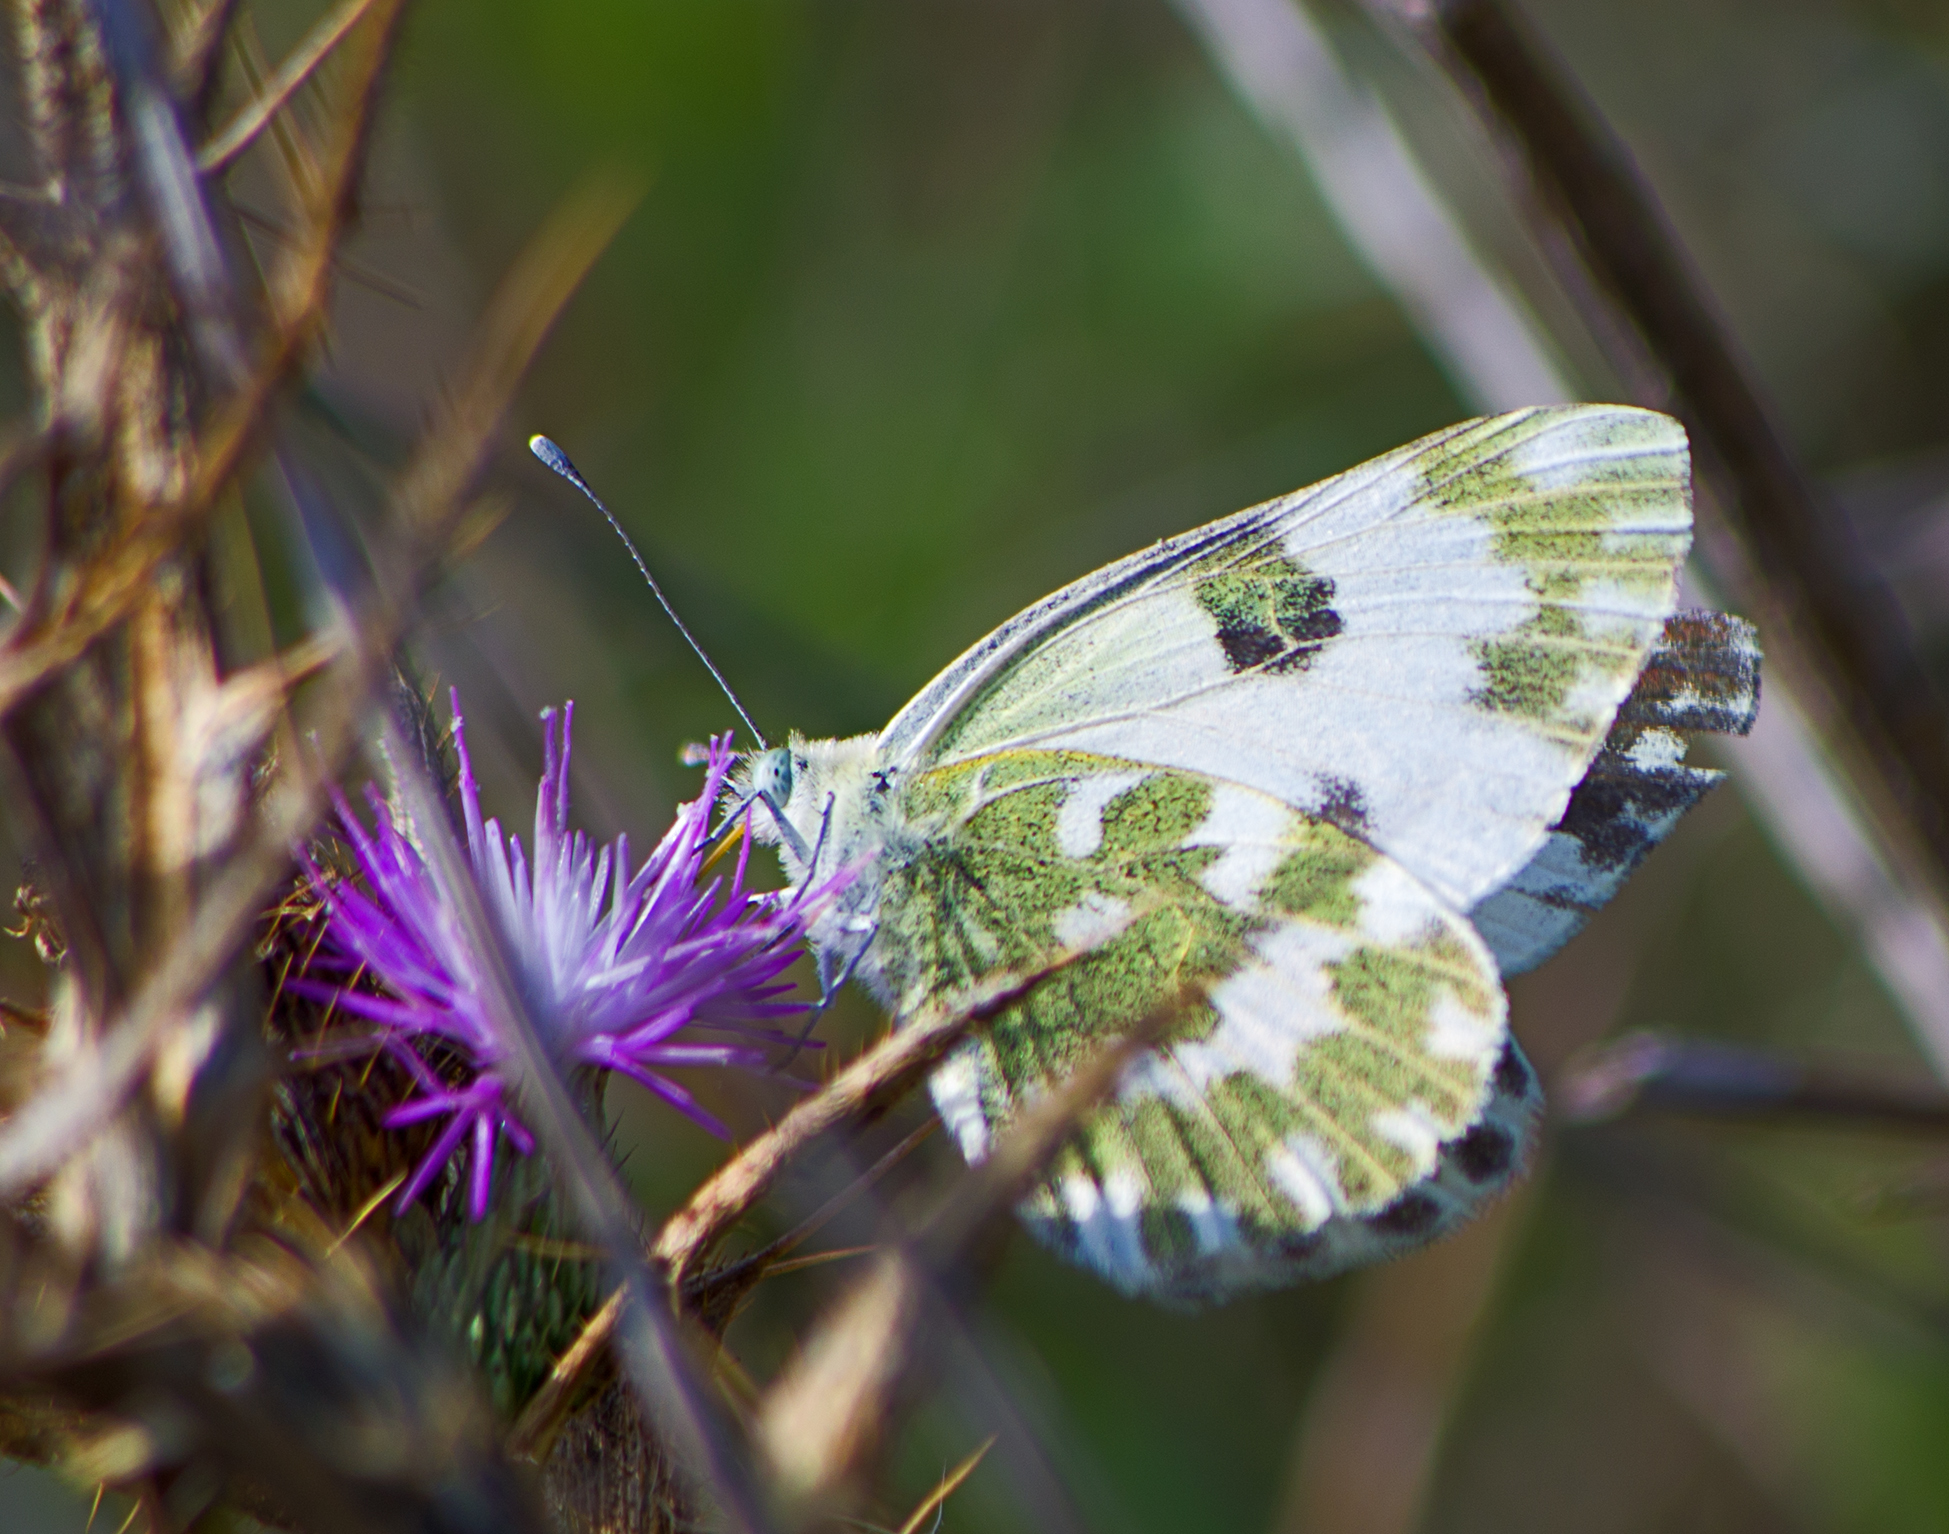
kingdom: Animalia
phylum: Arthropoda
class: Insecta
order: Lepidoptera
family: Pieridae
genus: Pontia
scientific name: Pontia edusa
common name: Eastern bath white
